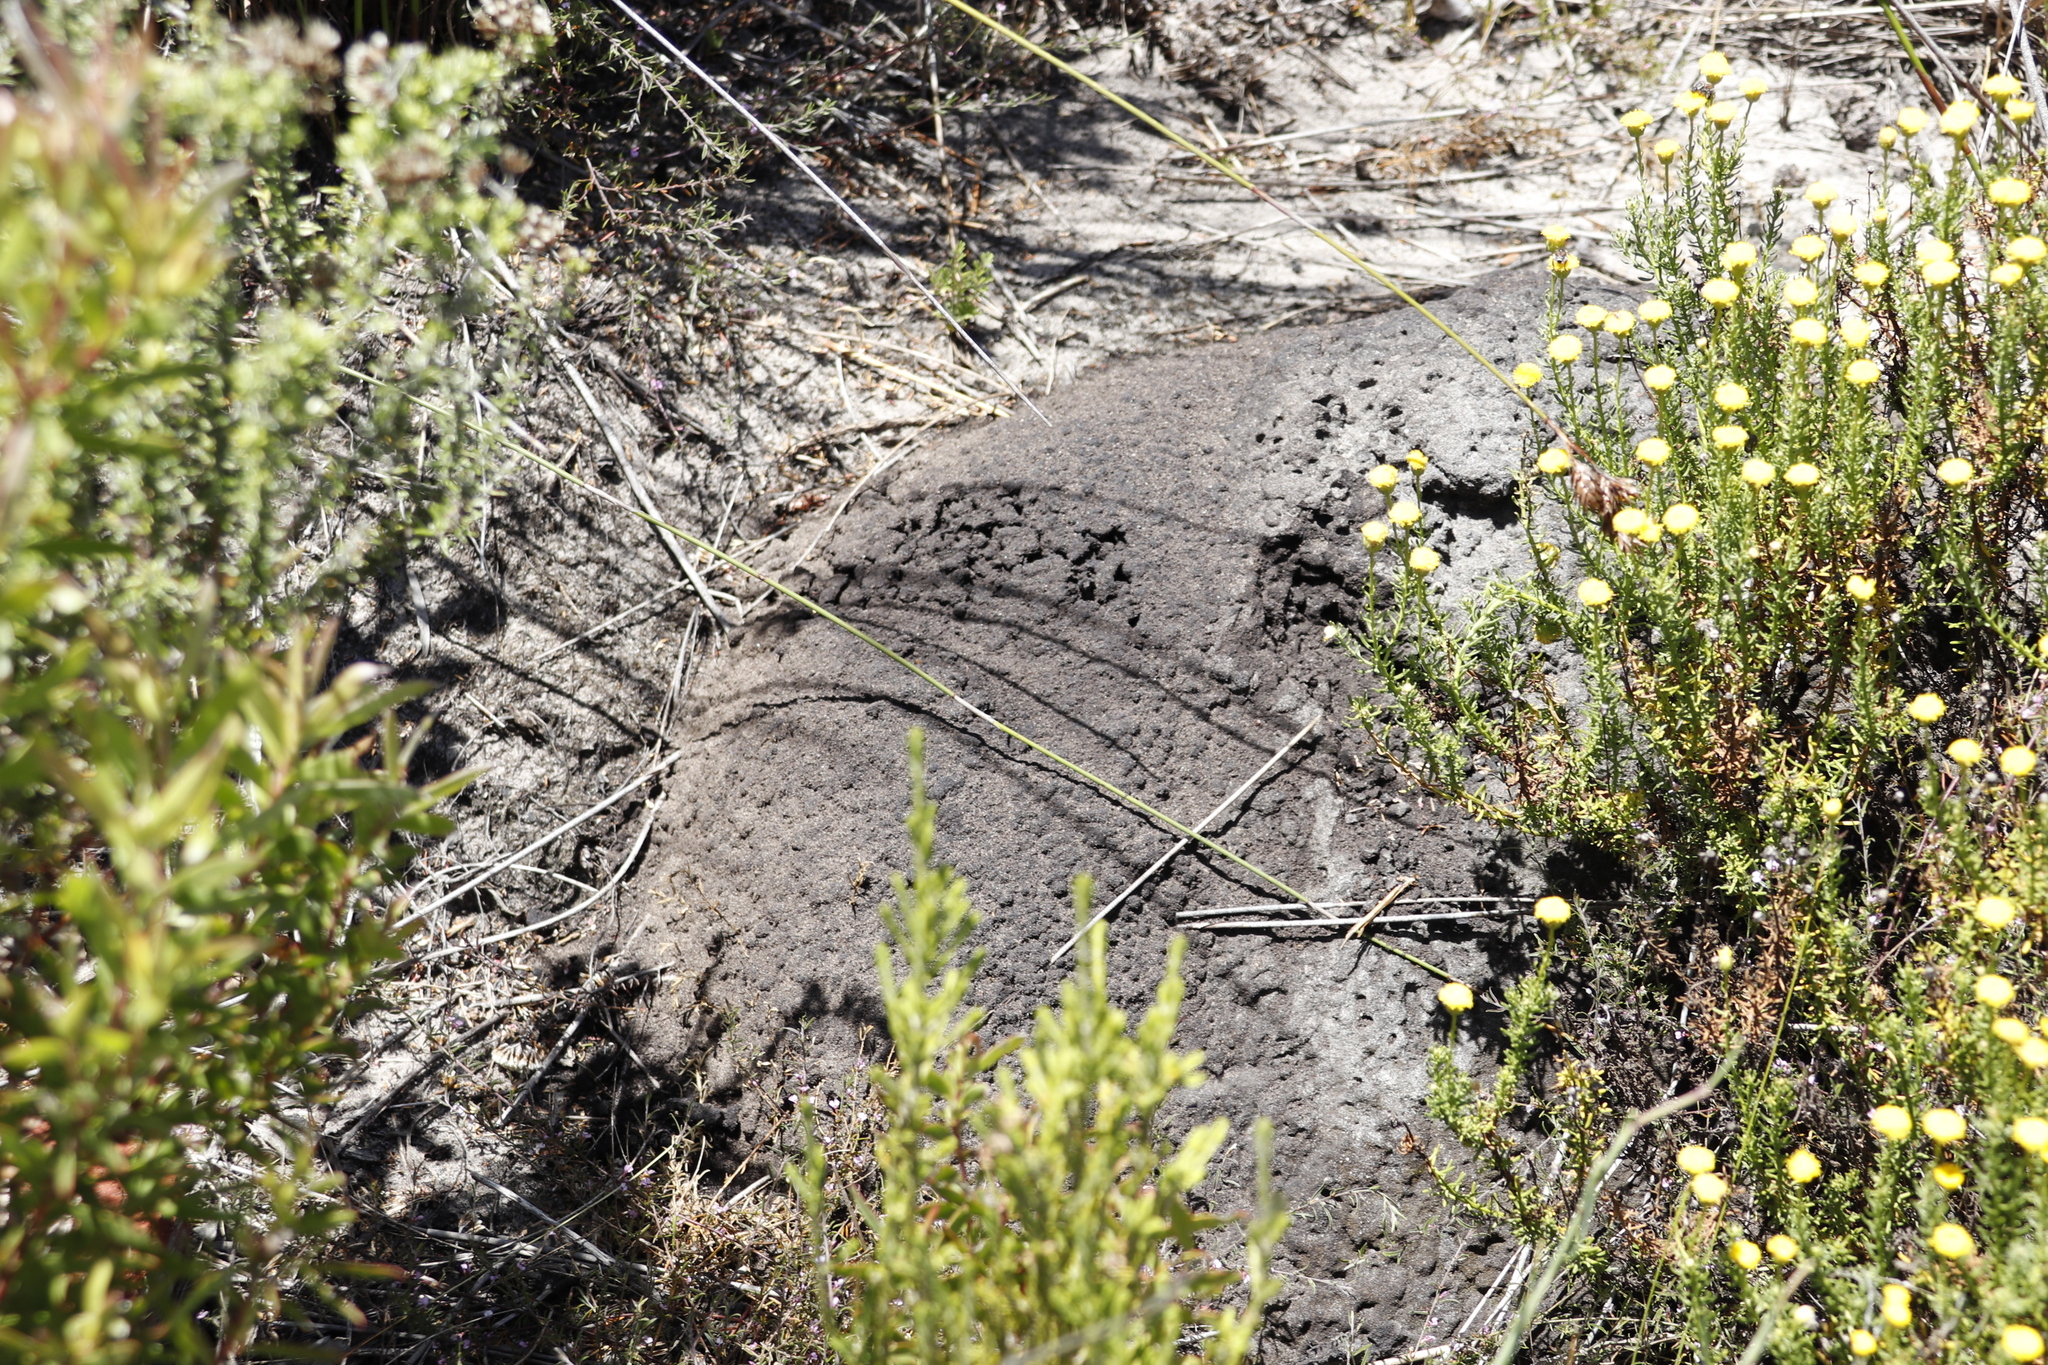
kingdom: Animalia
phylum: Arthropoda
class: Insecta
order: Blattodea
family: Termitidae
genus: Amitermes
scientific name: Amitermes hastatus
